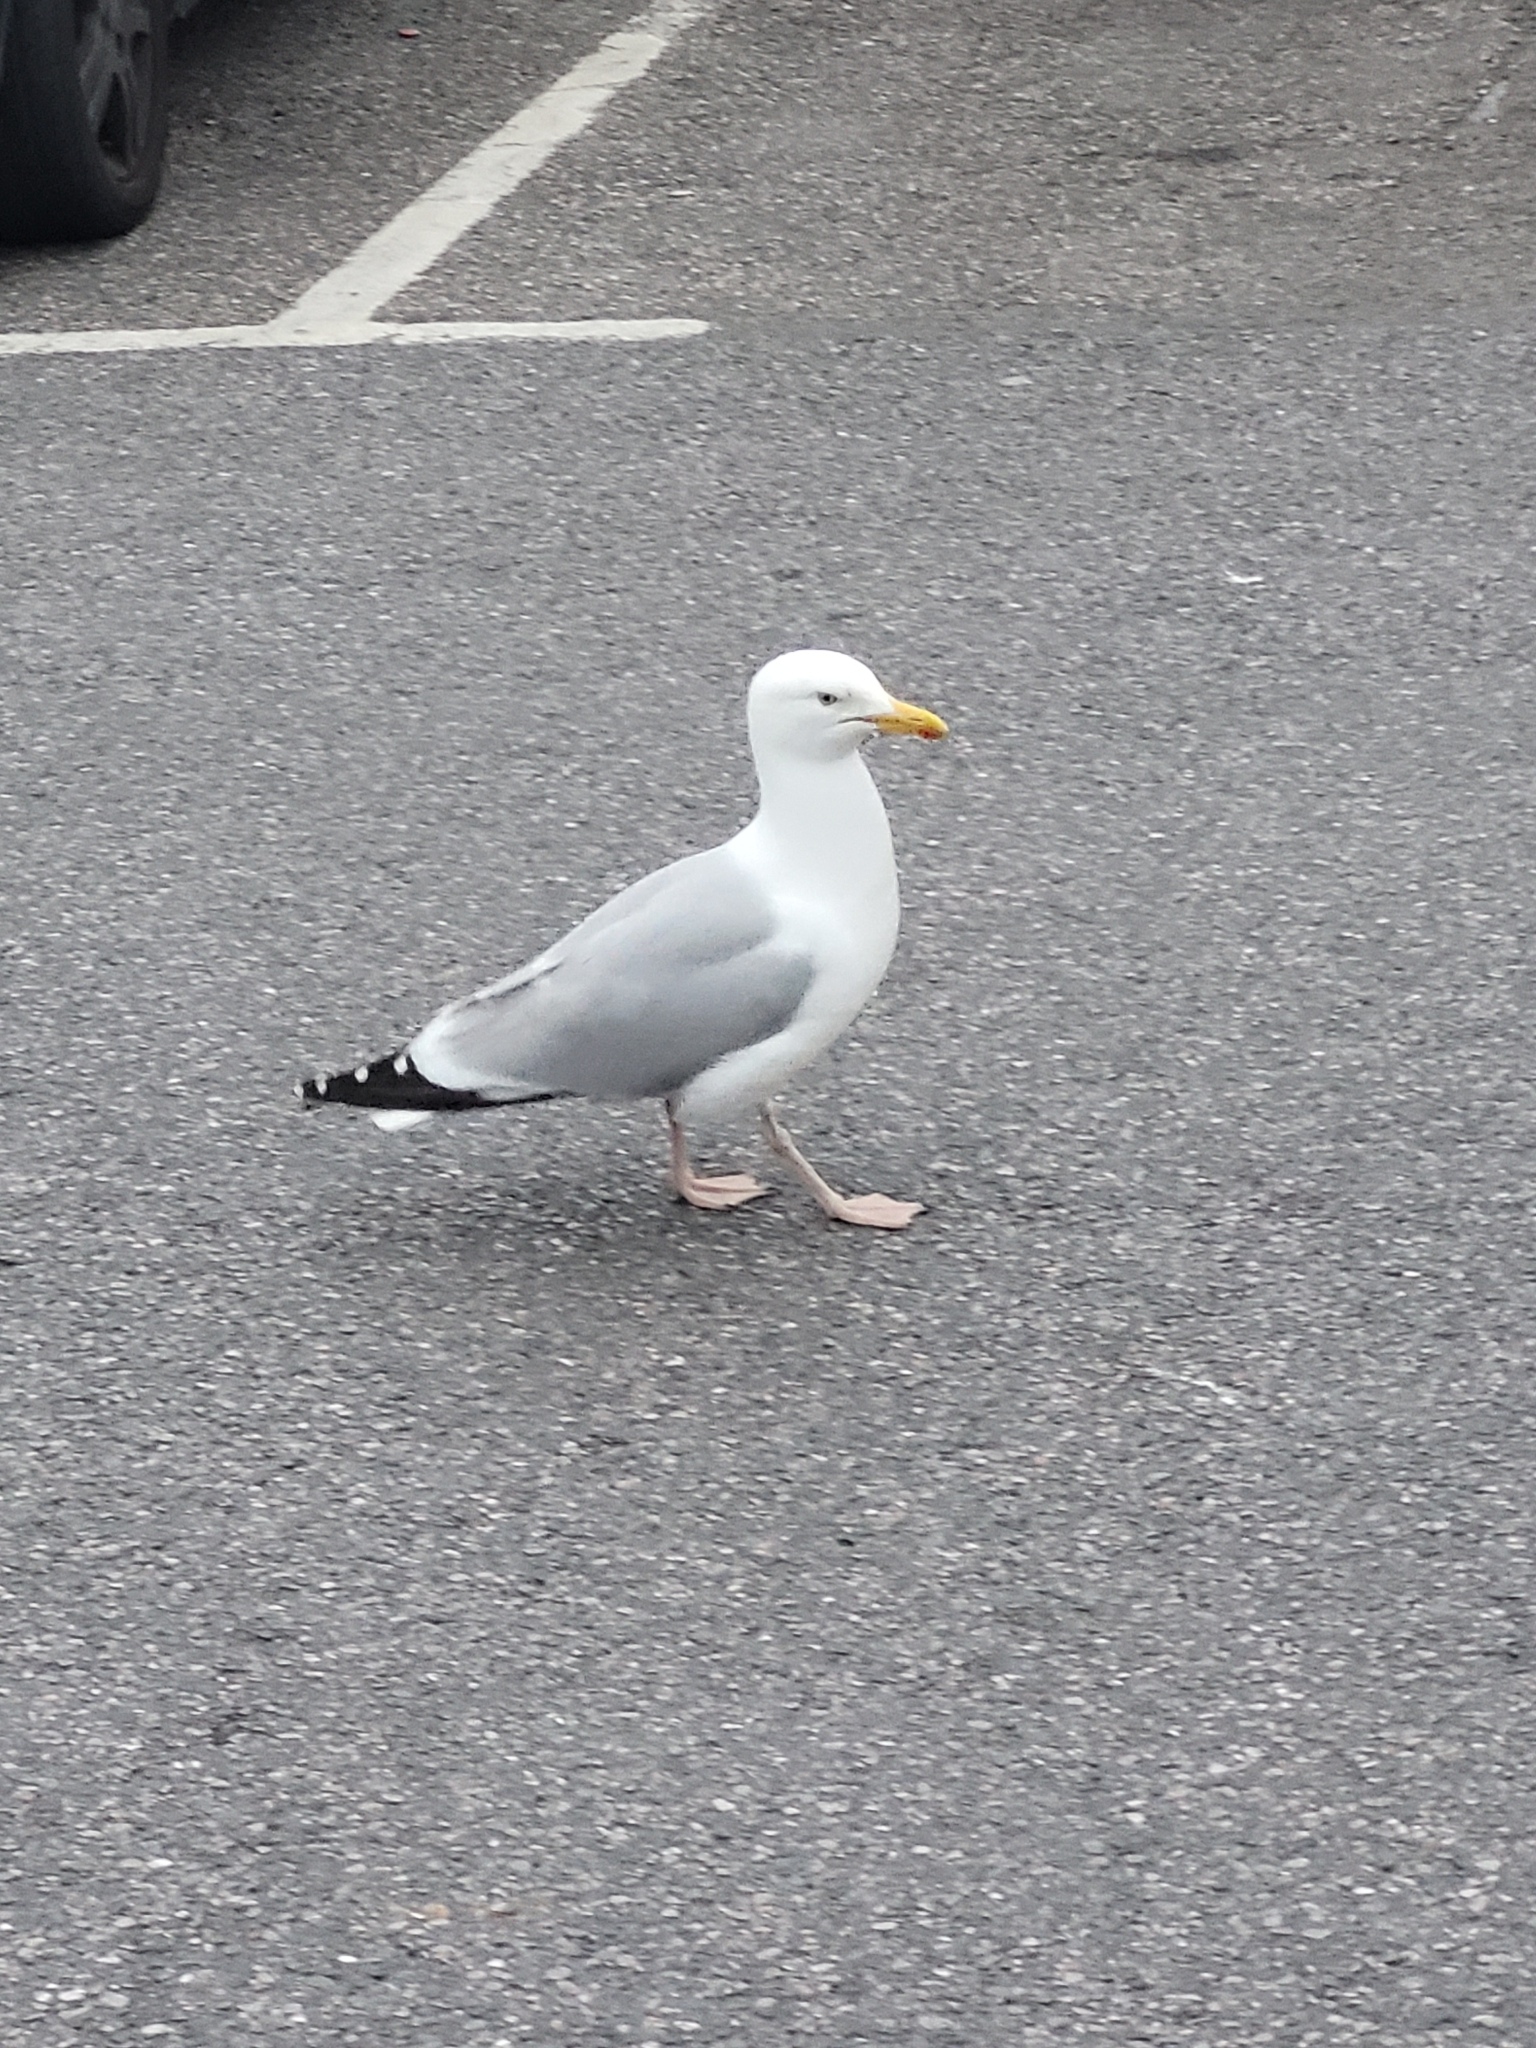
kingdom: Animalia
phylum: Chordata
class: Aves
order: Charadriiformes
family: Laridae
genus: Larus
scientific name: Larus argentatus
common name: Herring gull
